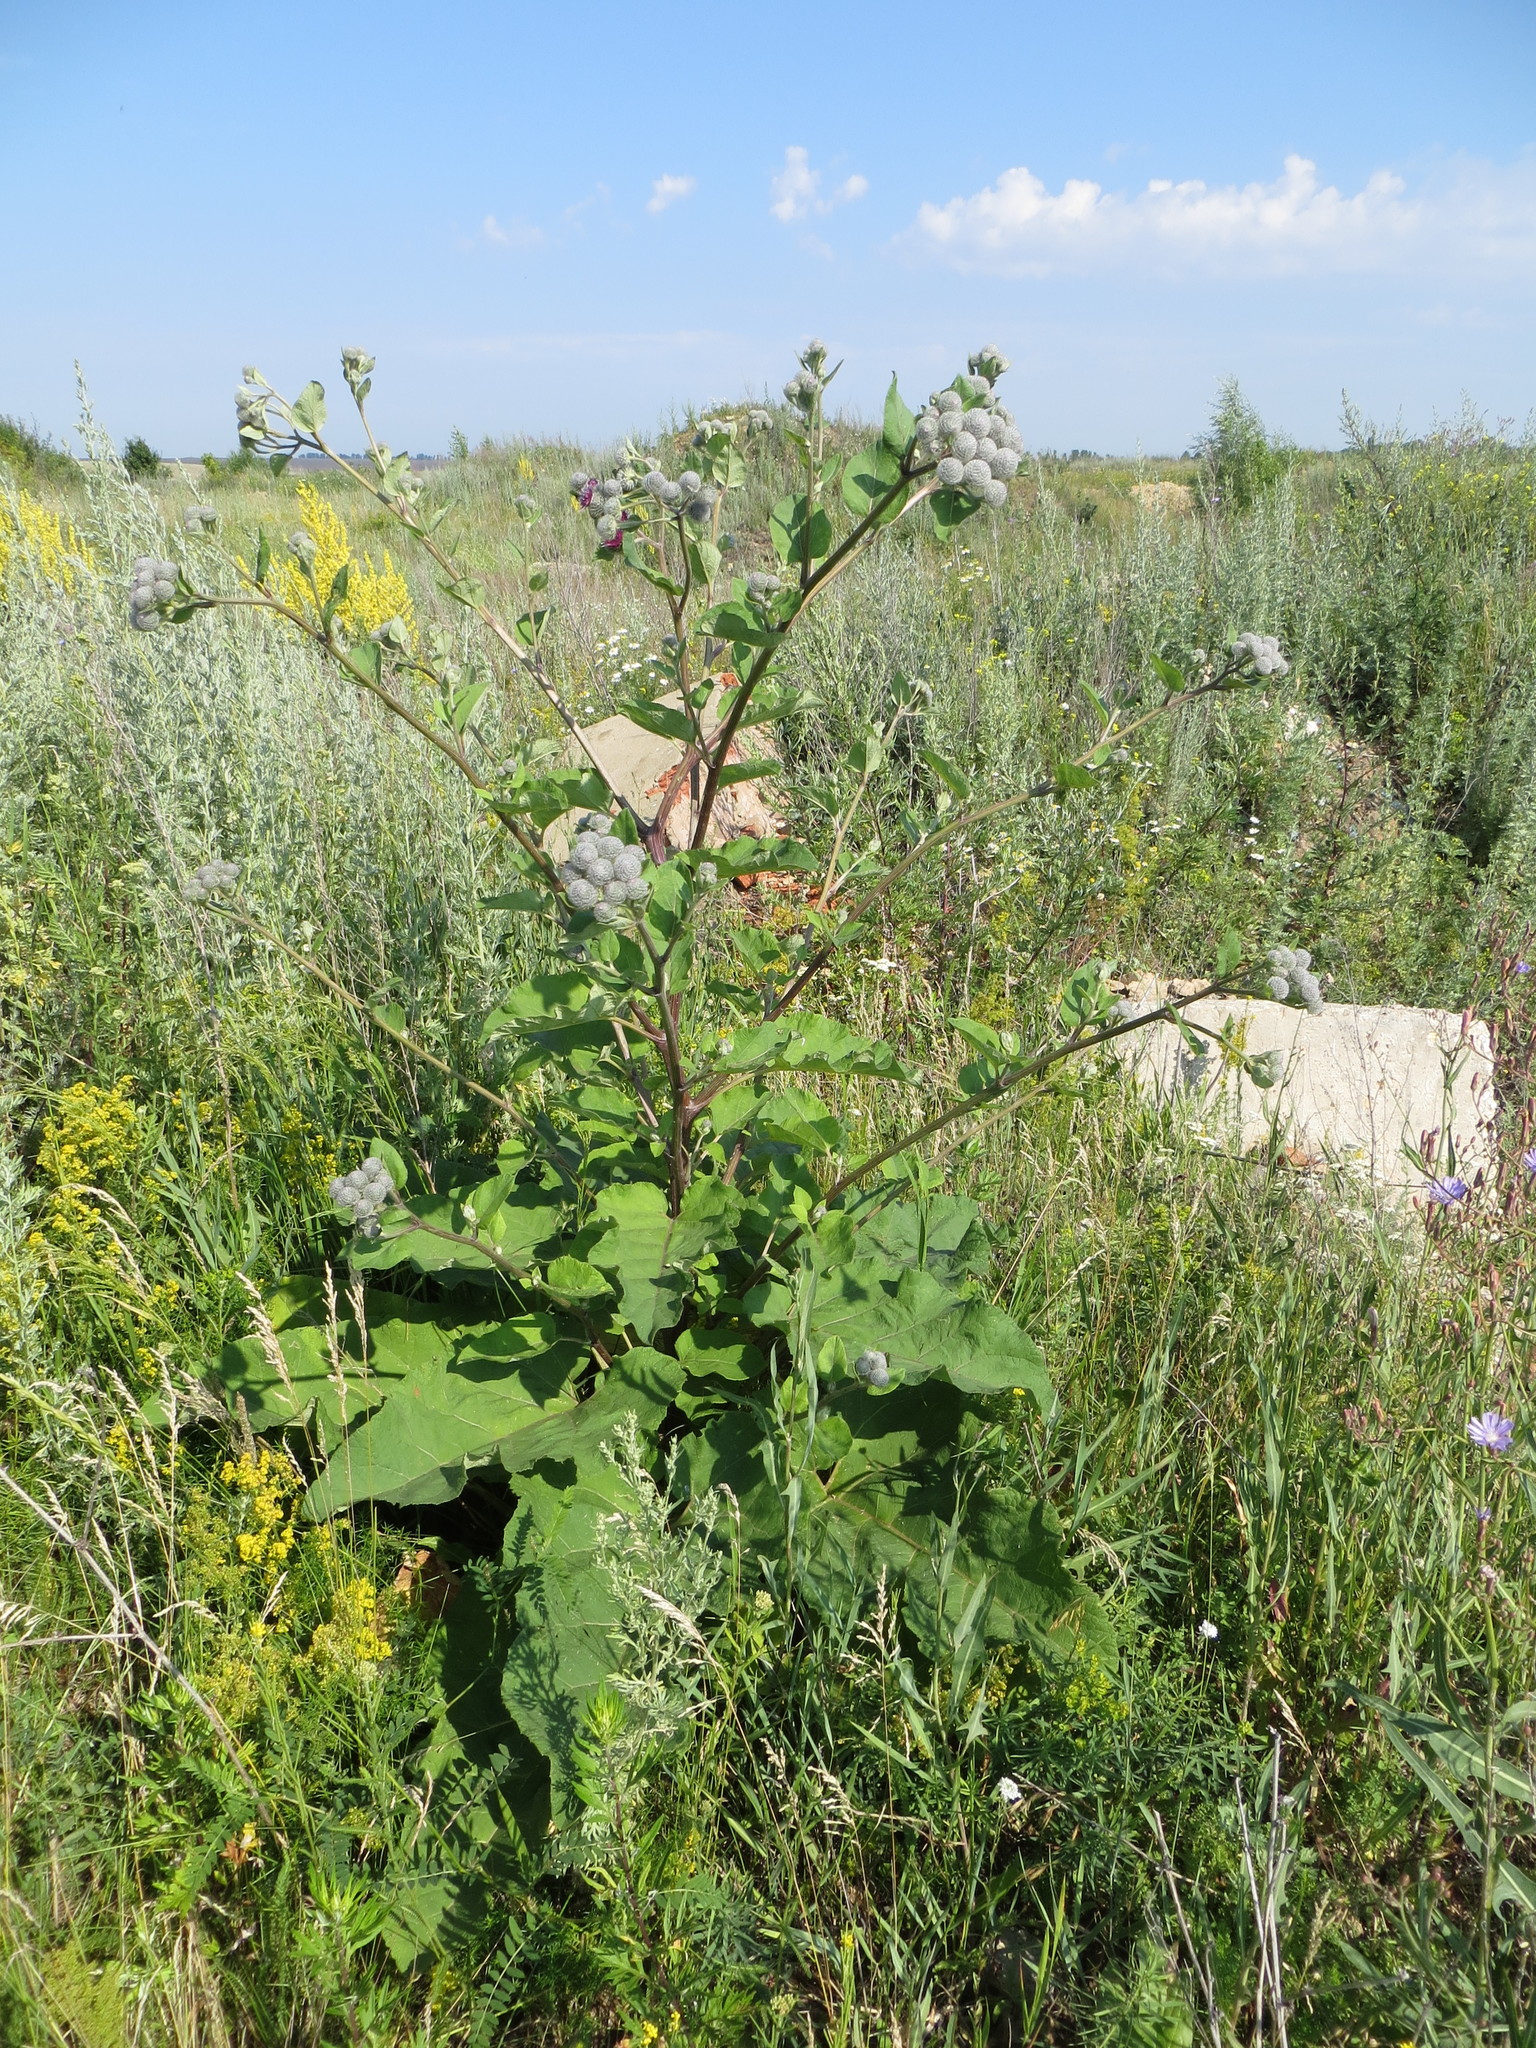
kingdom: Plantae
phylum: Tracheophyta
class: Magnoliopsida
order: Asterales
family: Asteraceae
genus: Arctium
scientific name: Arctium tomentosum
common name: Woolly burdock
